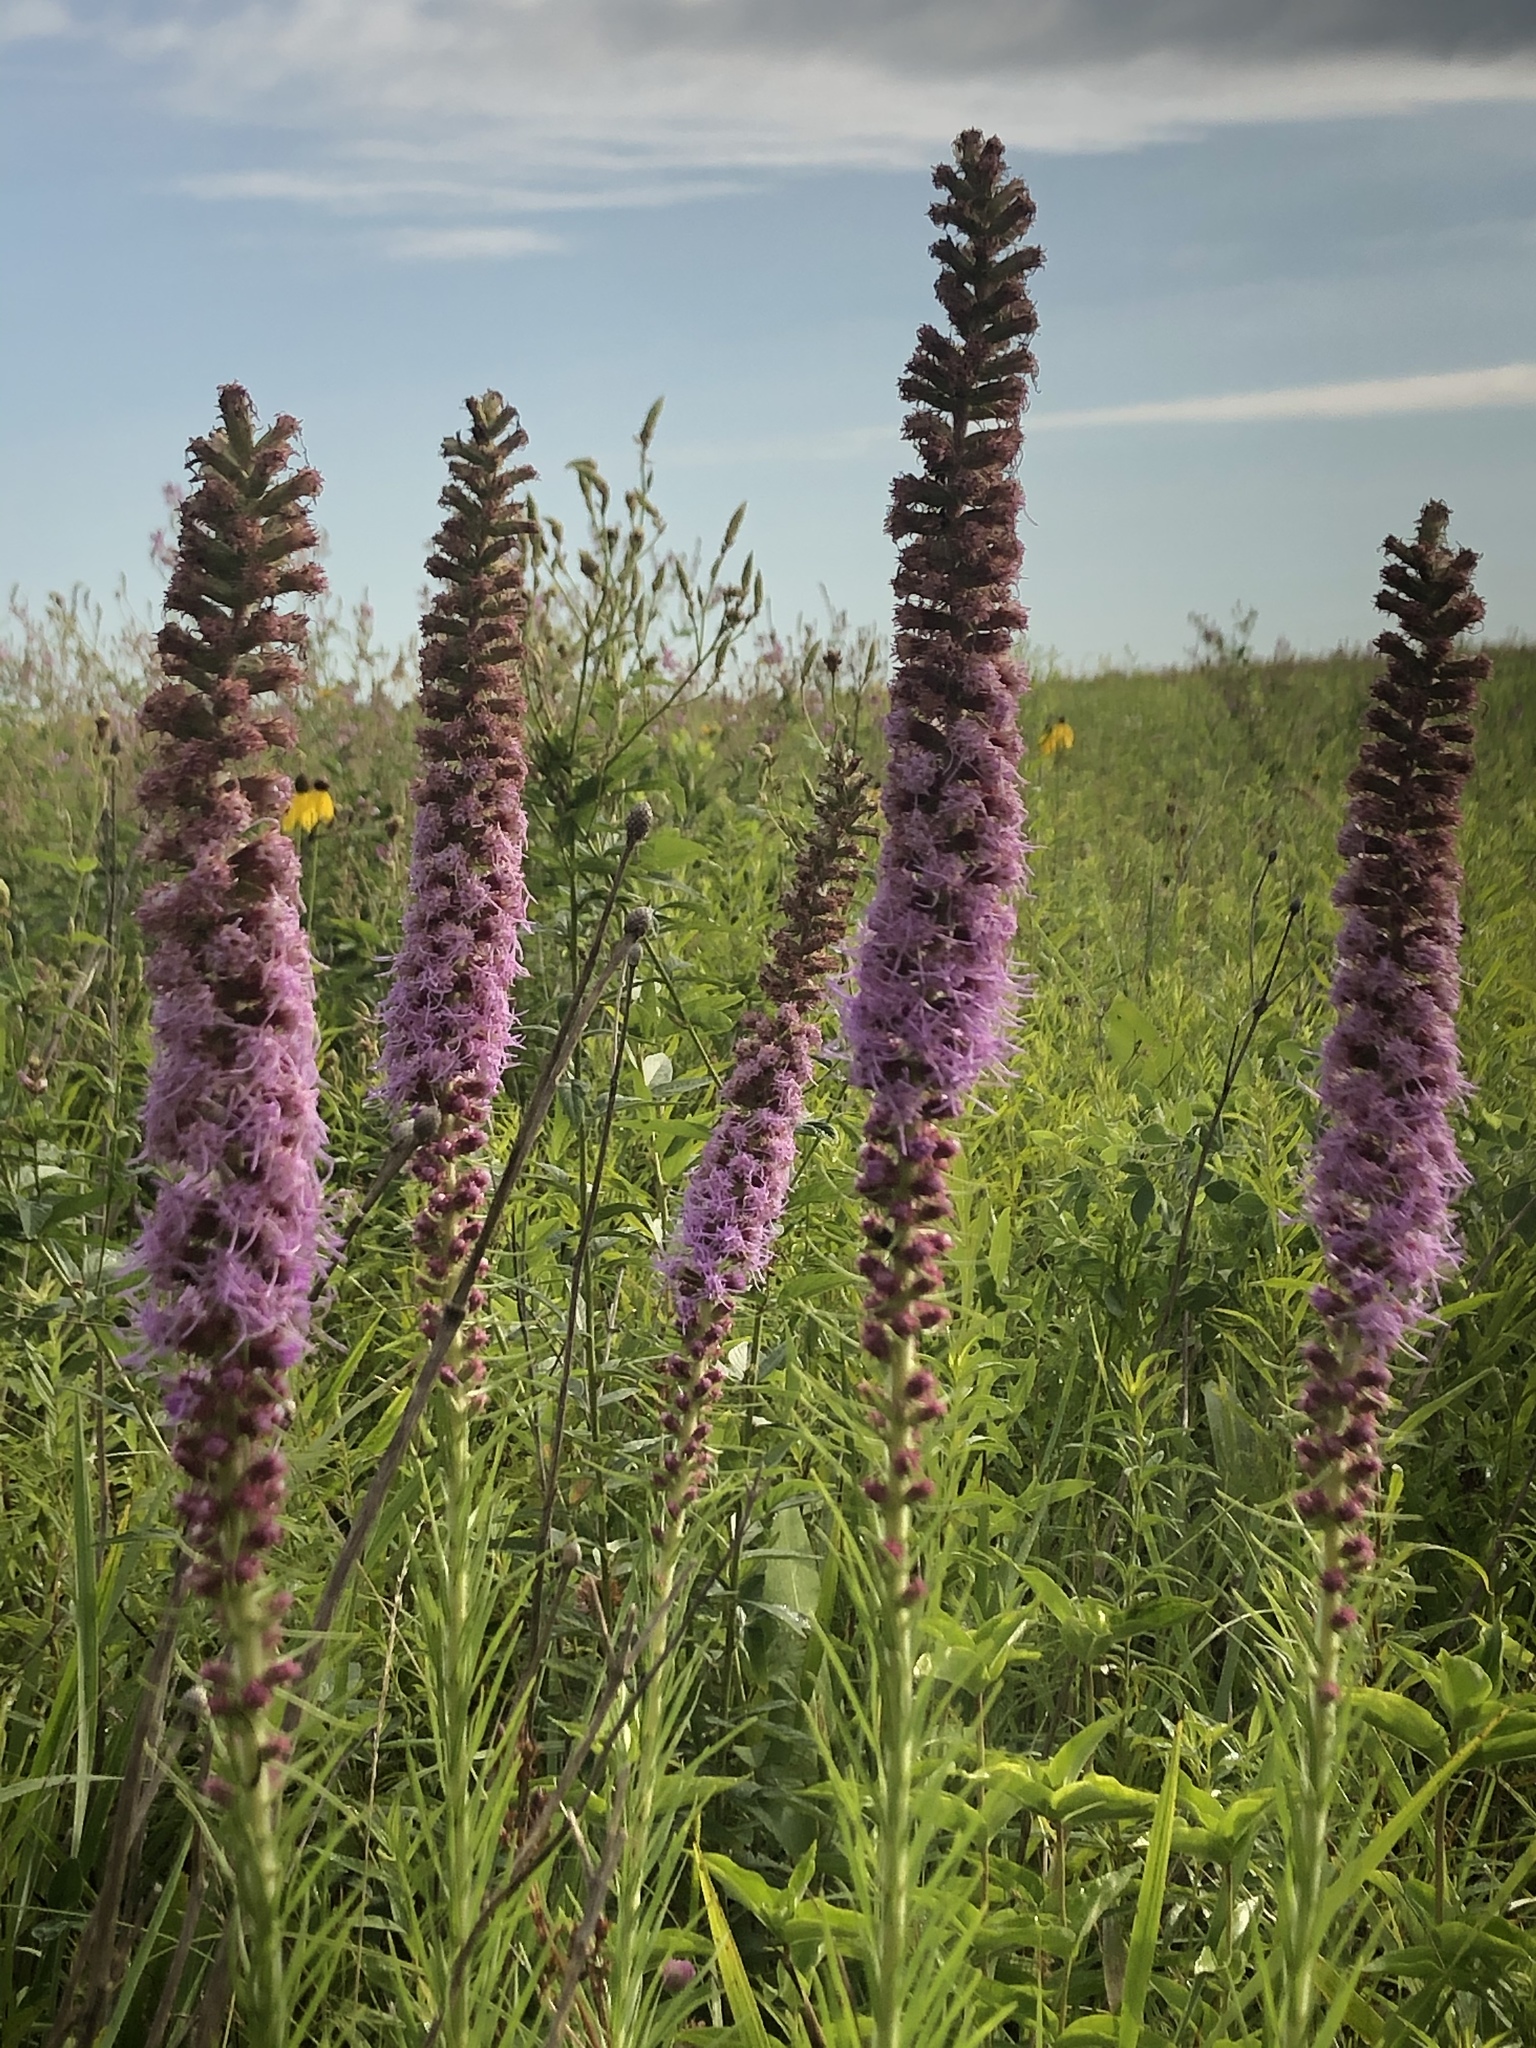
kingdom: Plantae
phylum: Tracheophyta
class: Magnoliopsida
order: Asterales
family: Asteraceae
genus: Liatris
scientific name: Liatris pycnostachya
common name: Cattail gayfeather
